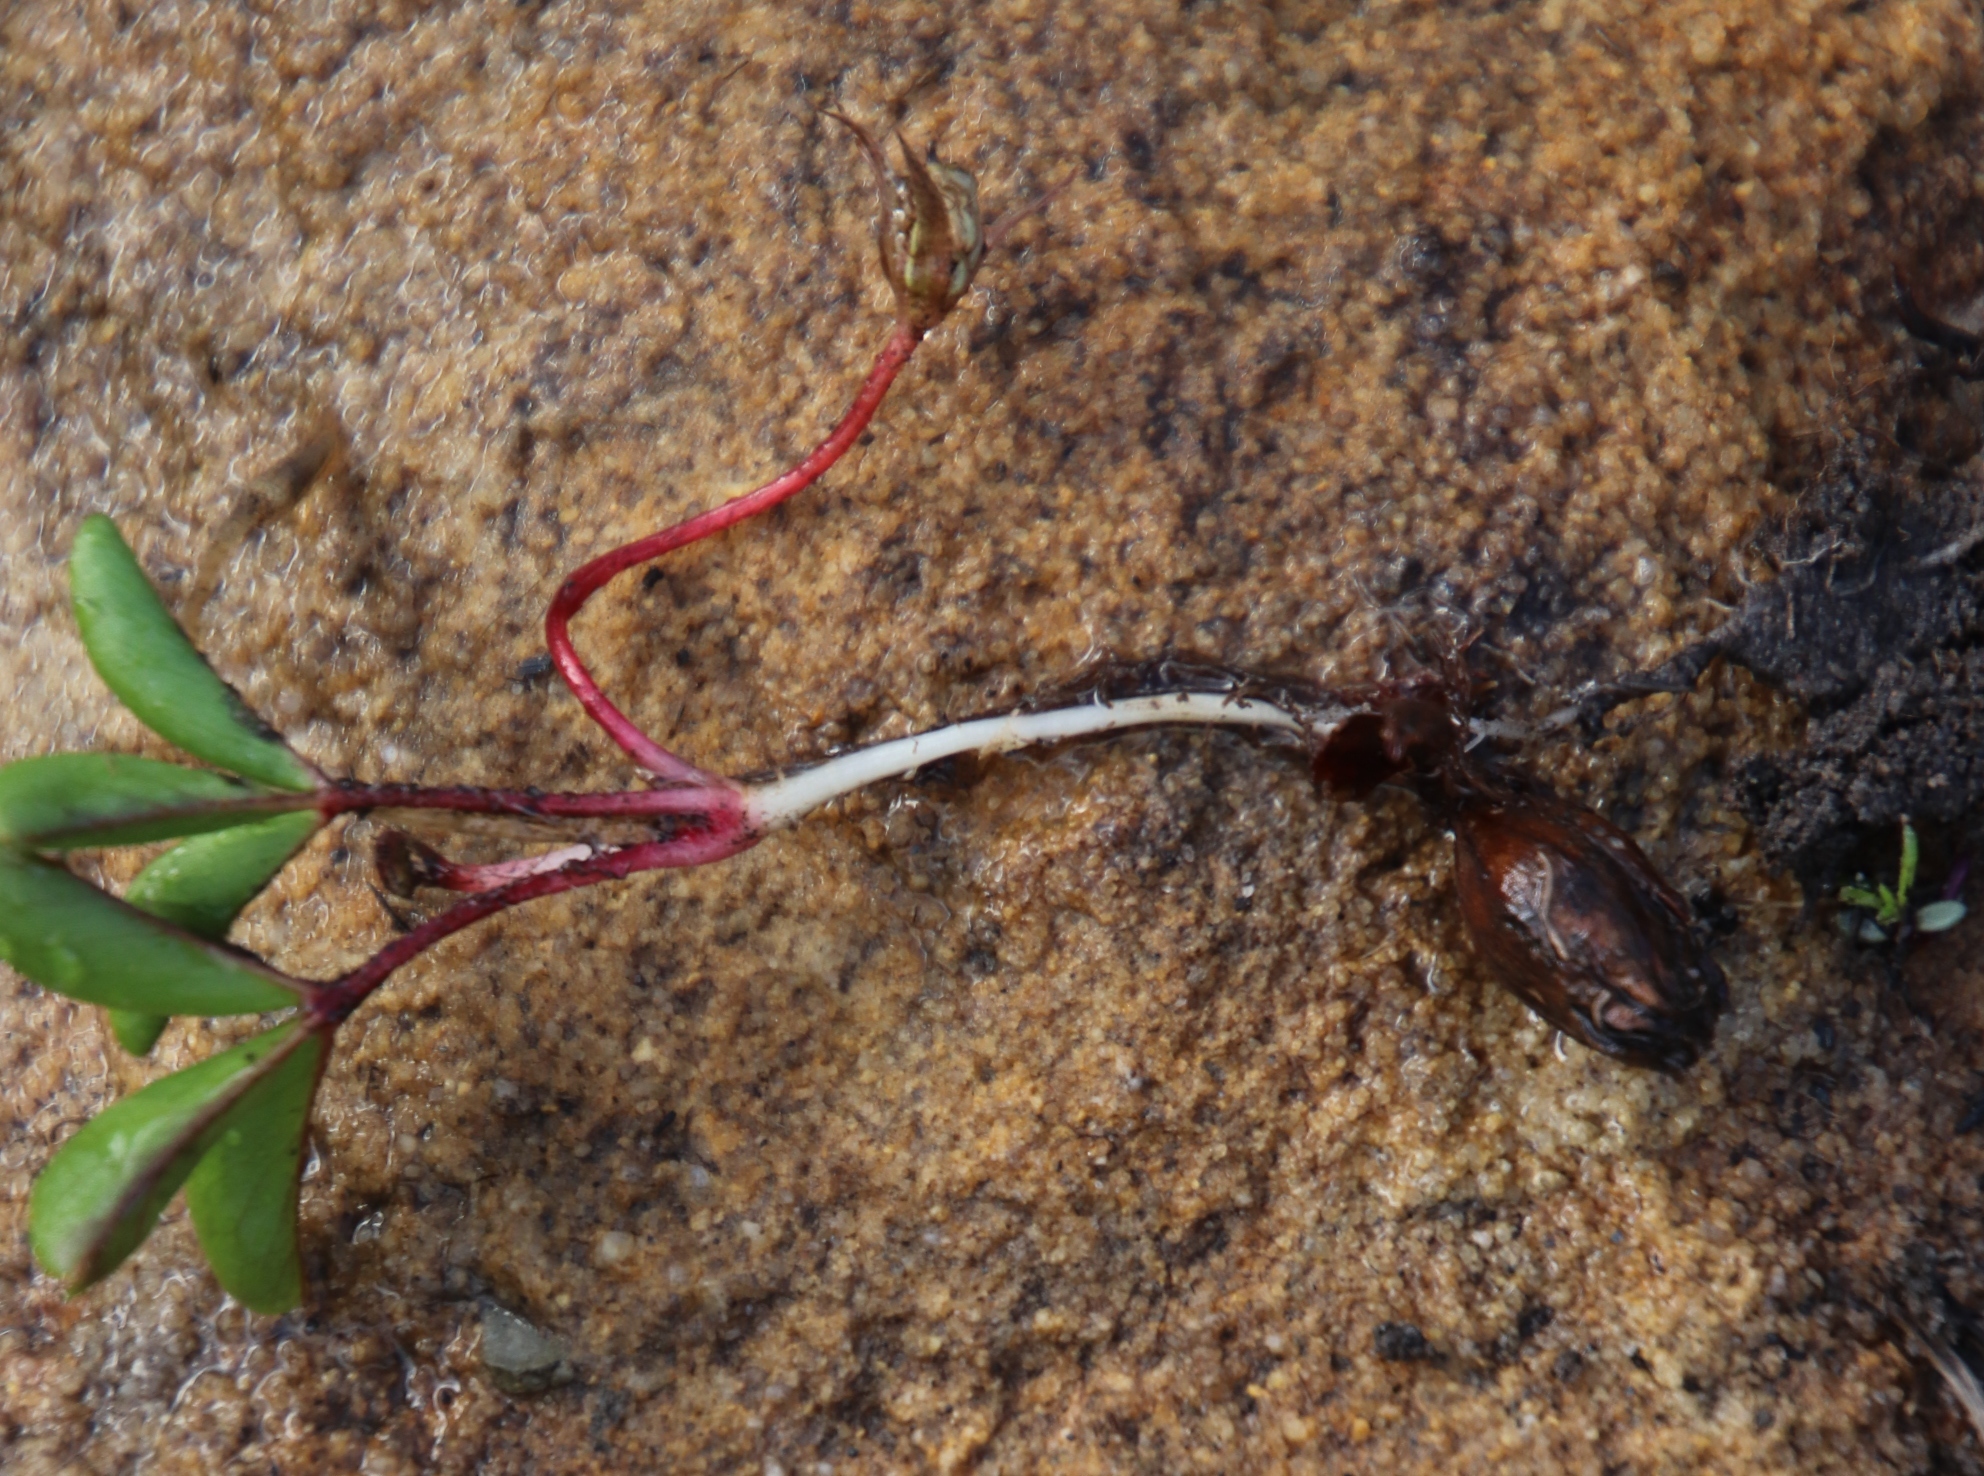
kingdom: Plantae
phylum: Tracheophyta
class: Magnoliopsida
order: Oxalidales
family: Oxalidaceae
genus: Oxalis
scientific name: Oxalis eckloniana
